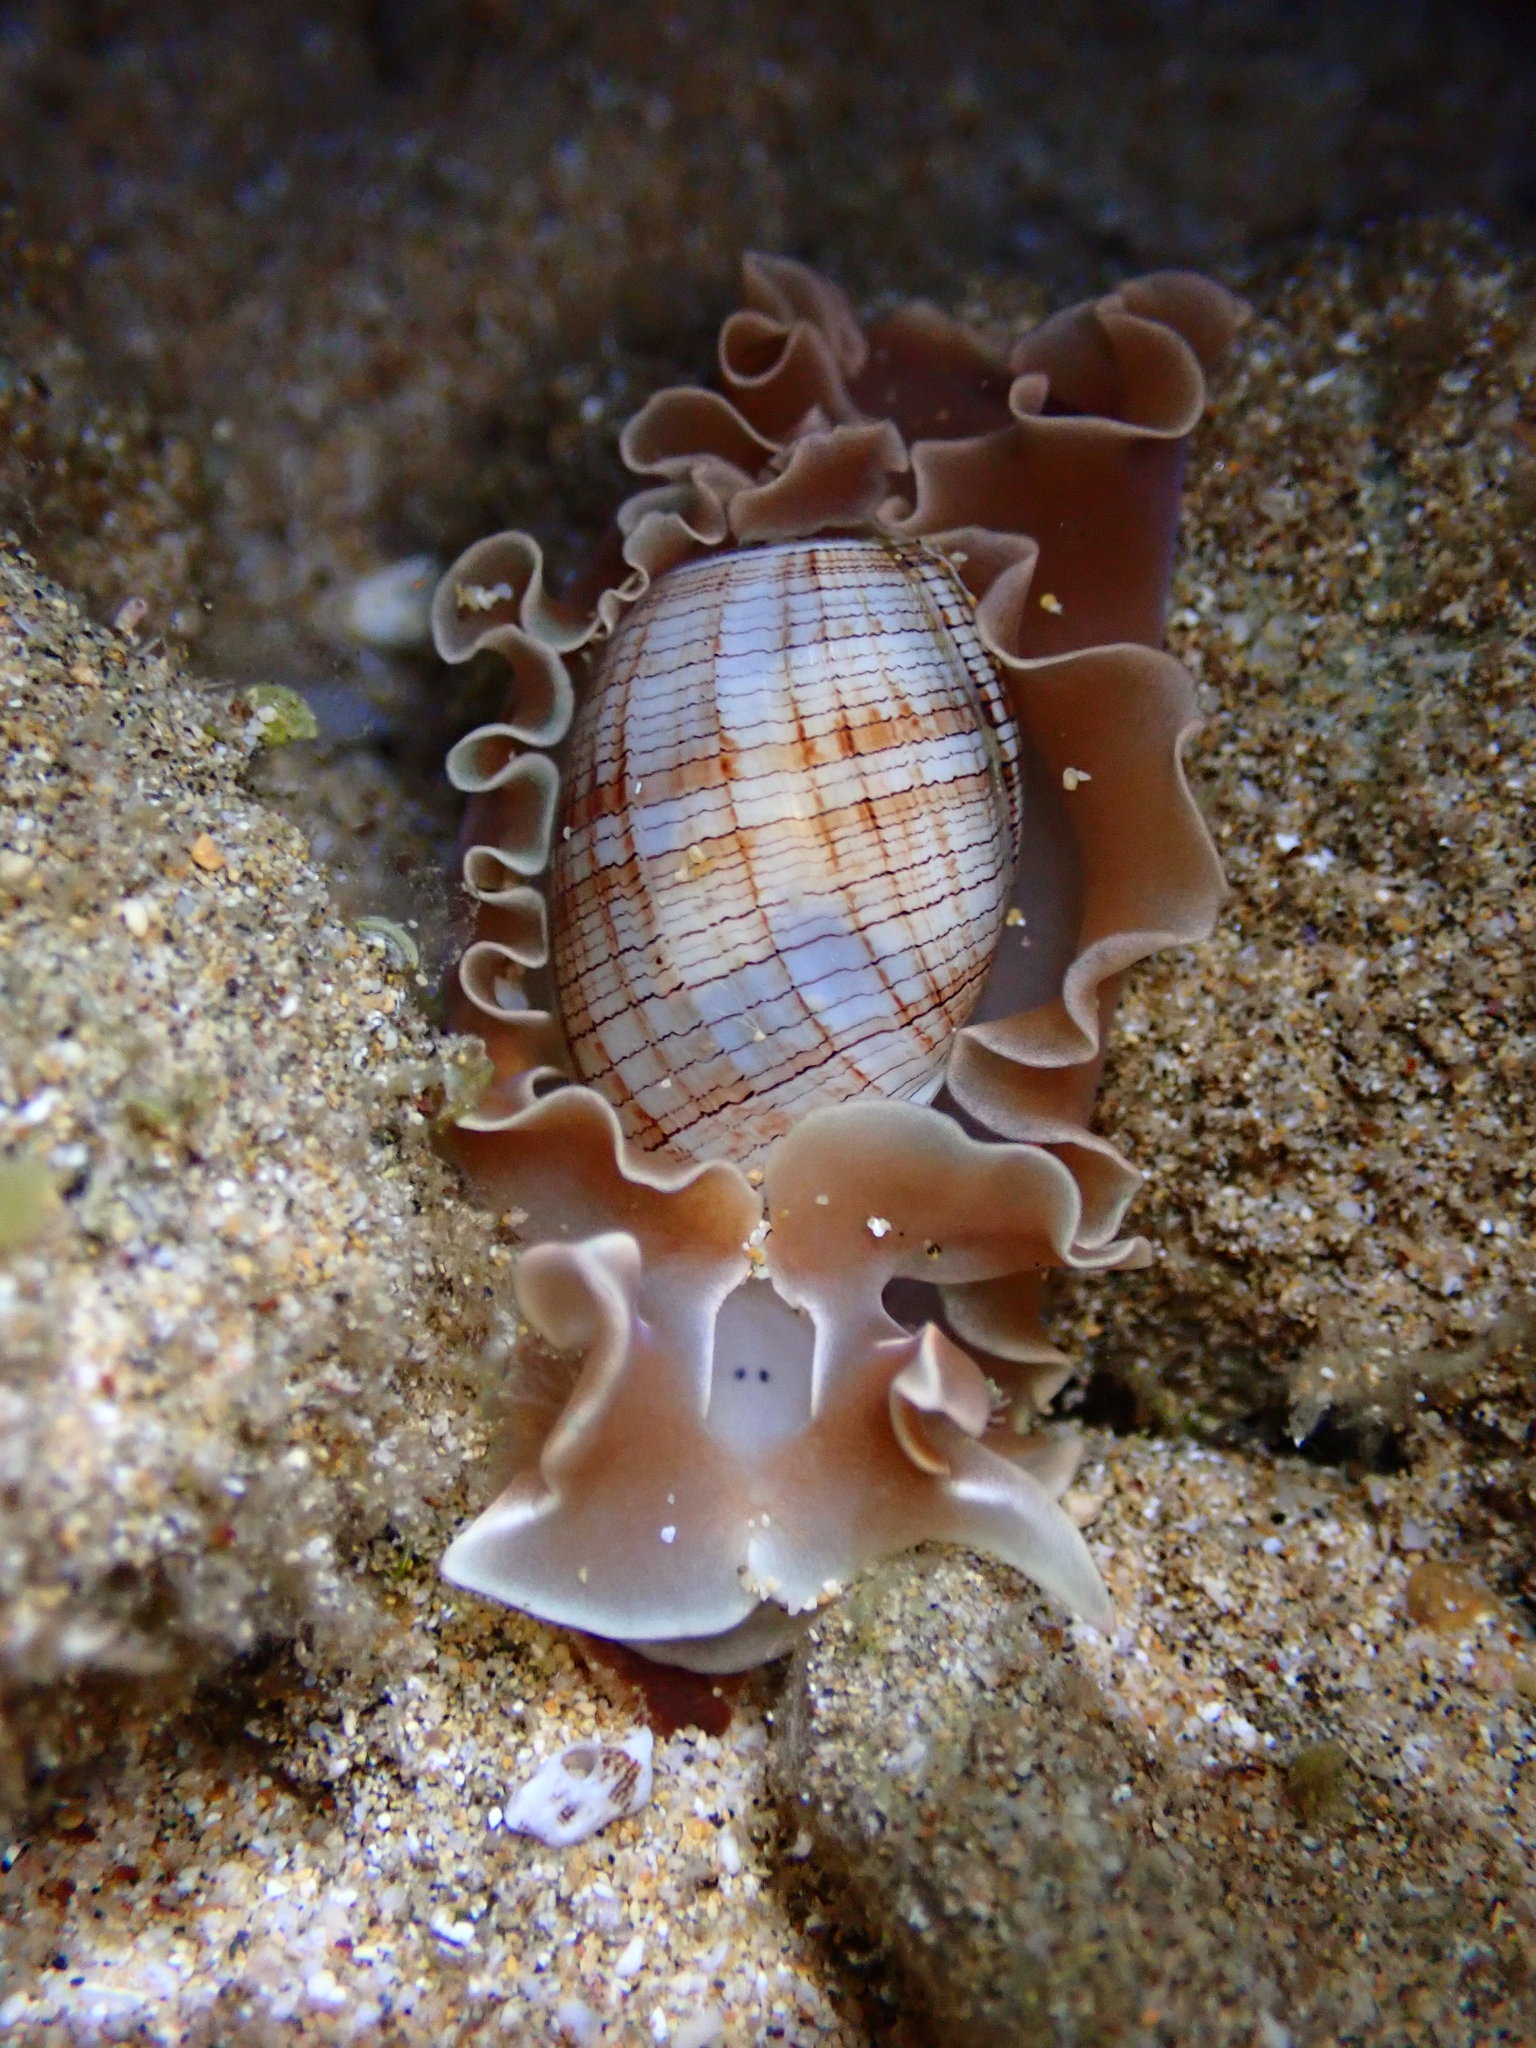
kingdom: Animalia
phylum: Mollusca
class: Gastropoda
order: Cephalaspidea
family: Aplustridae
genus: Hydatina
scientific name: Hydatina physis
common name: Brown-line paperbubble
